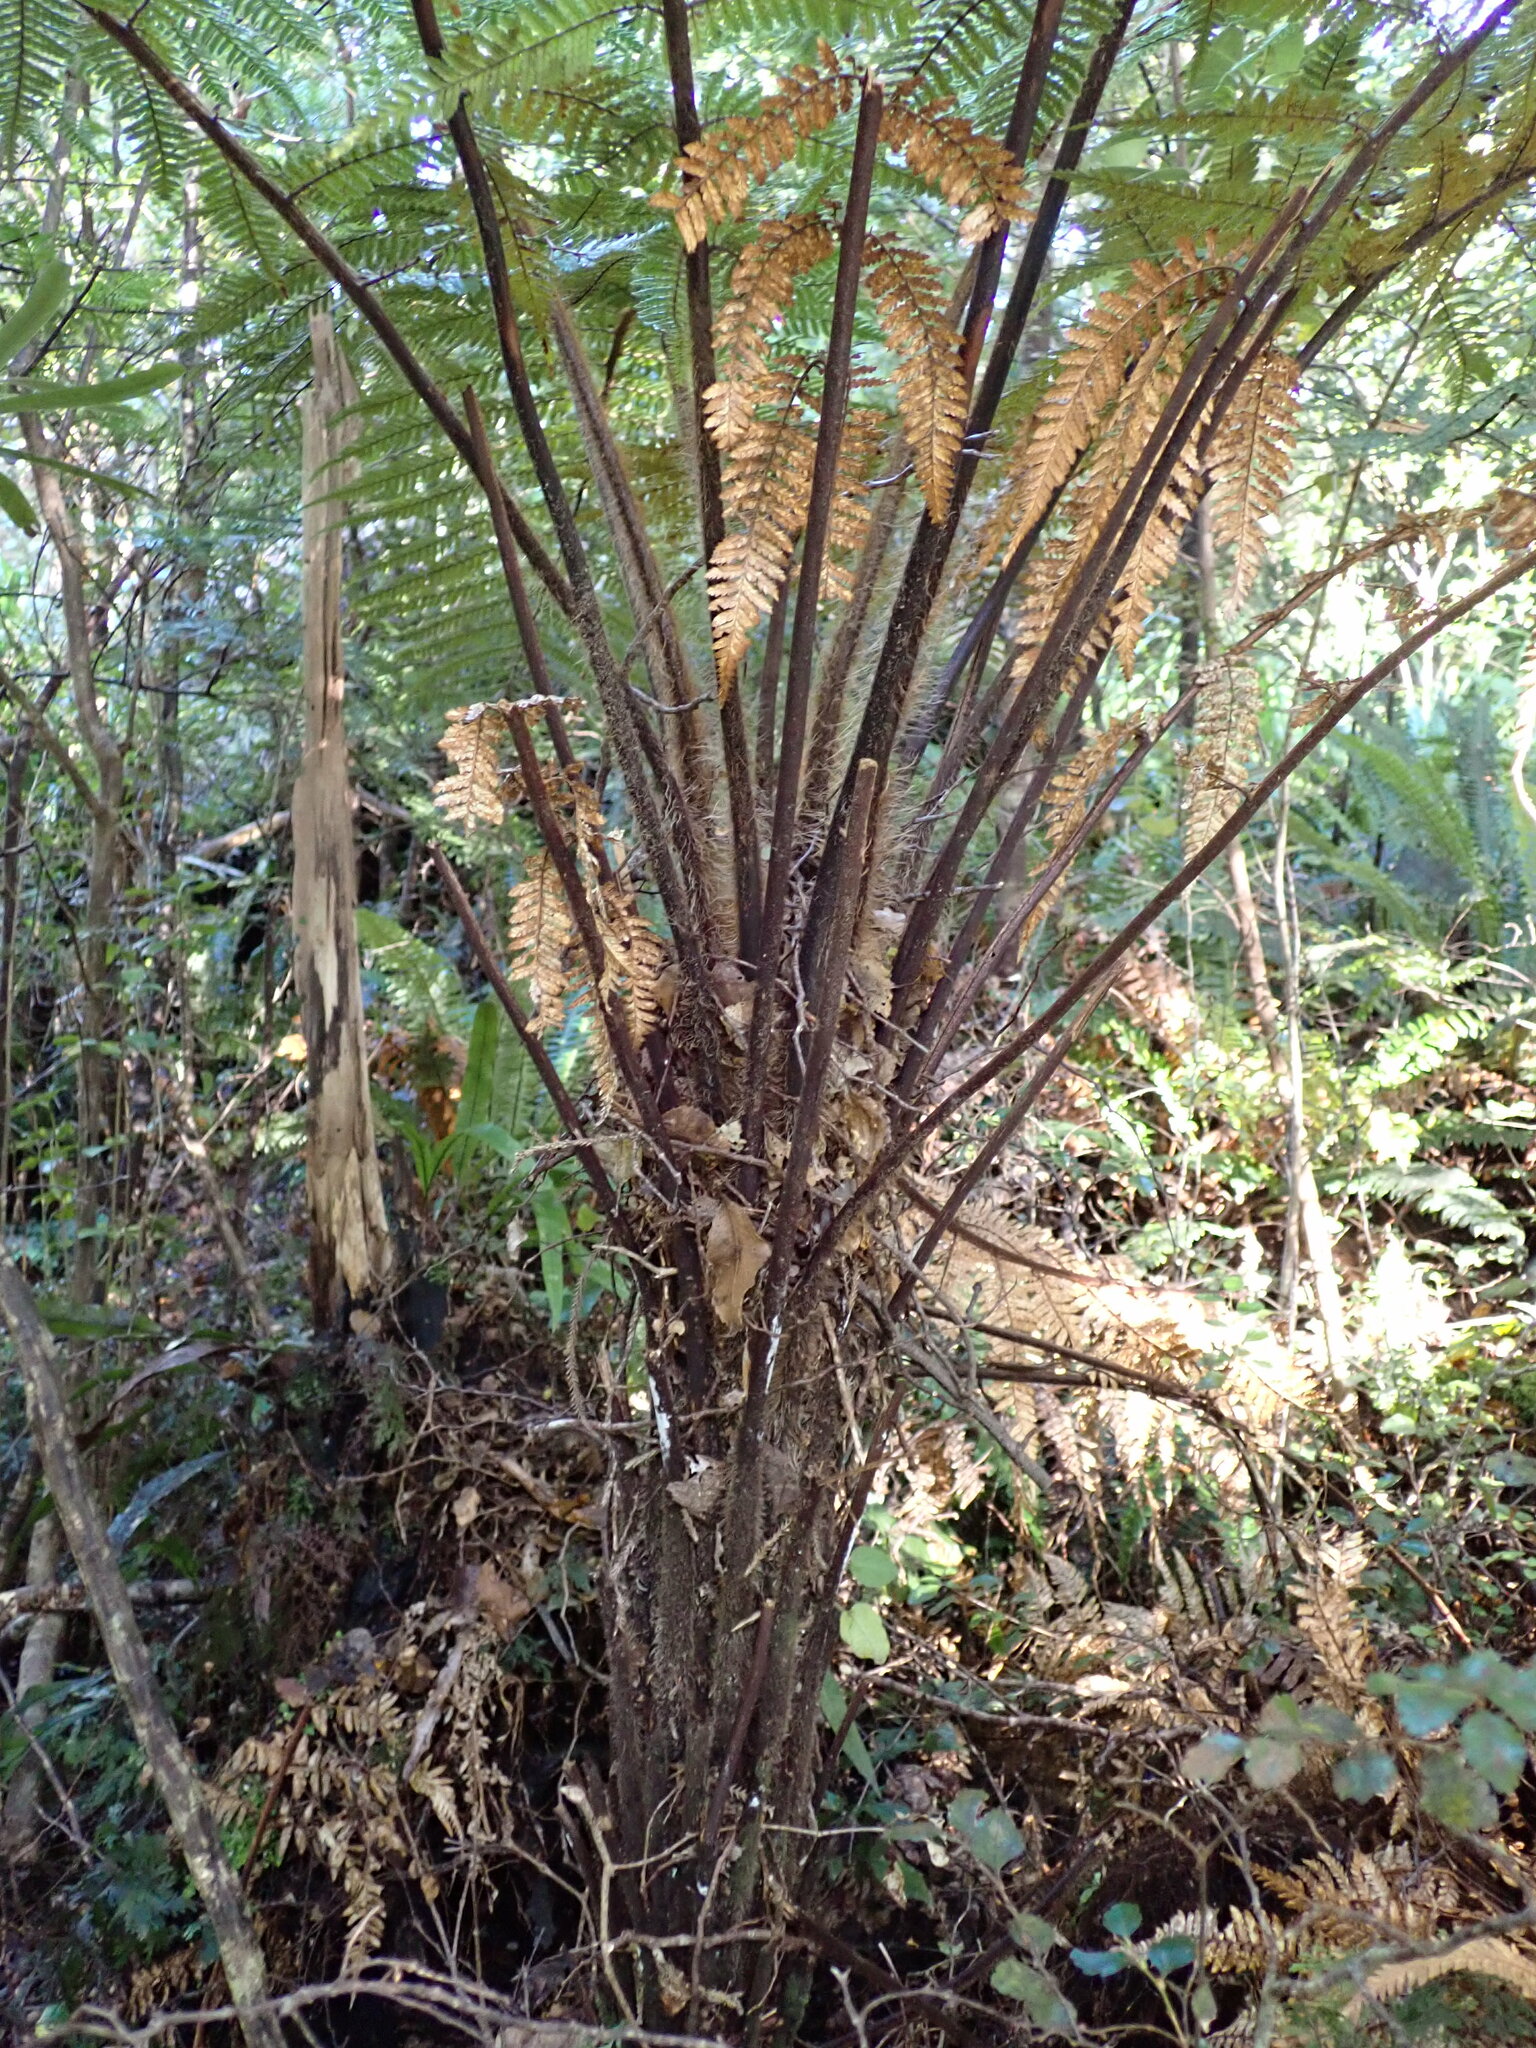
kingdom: Plantae
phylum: Tracheophyta
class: Polypodiopsida
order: Cyatheales
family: Dicksoniaceae
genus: Dicksonia
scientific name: Dicksonia squarrosa
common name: Hard treefern
